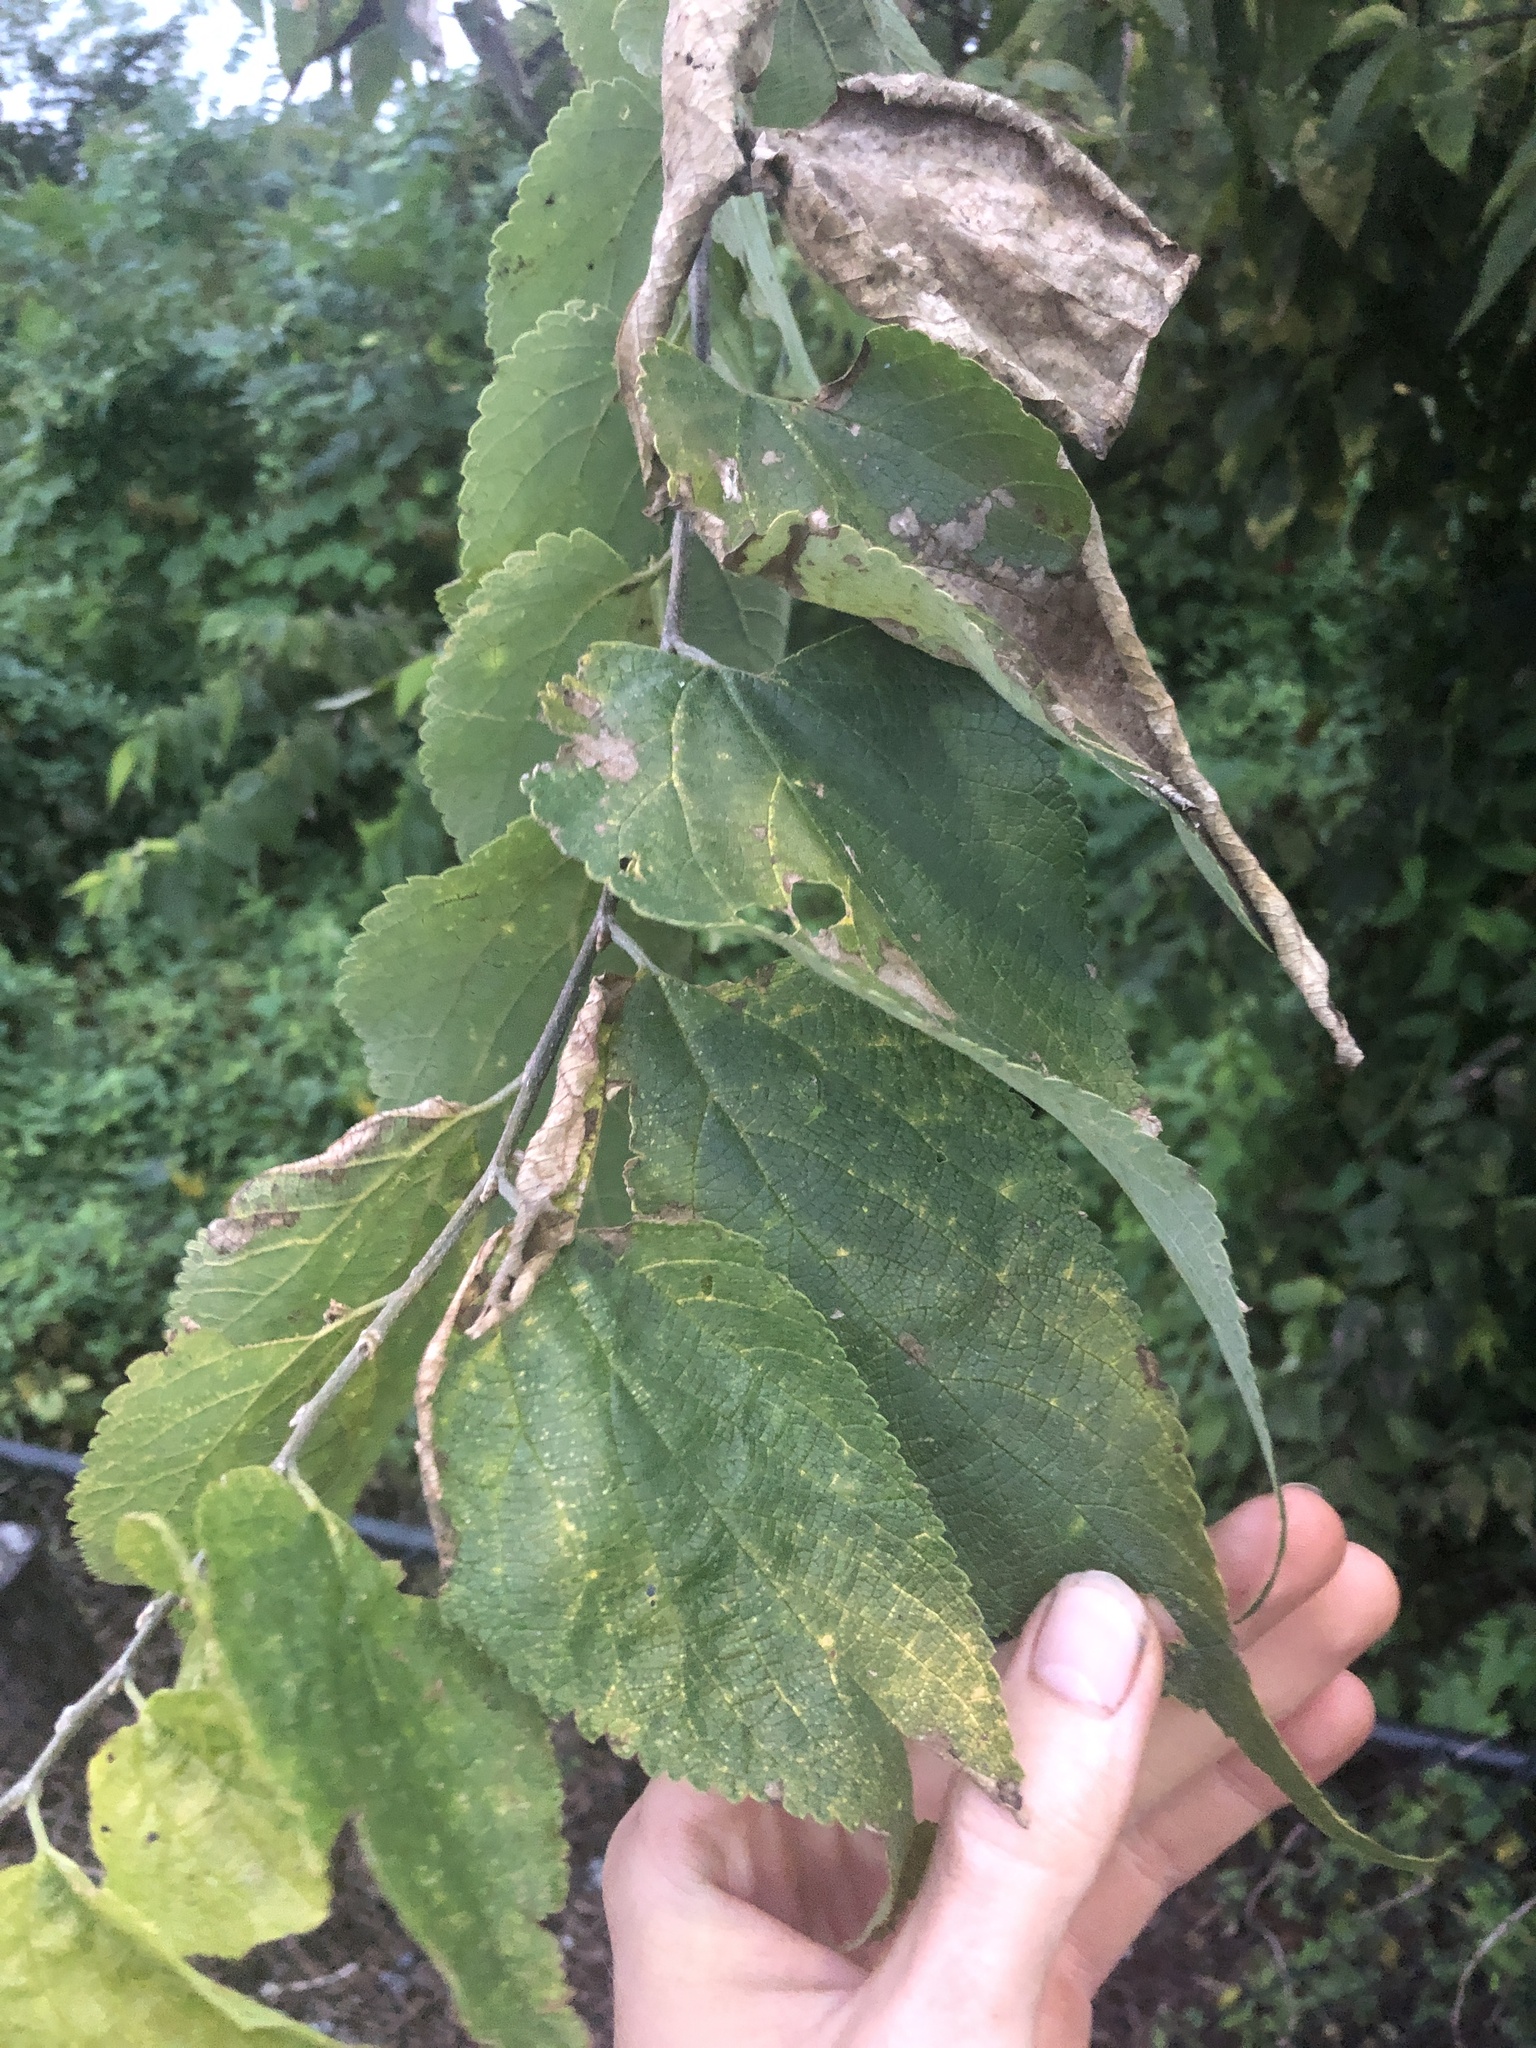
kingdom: Plantae
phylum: Tracheophyta
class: Magnoliopsida
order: Rosales
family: Cannabaceae
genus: Celtis
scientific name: Celtis occidentalis
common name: Common hackberry
